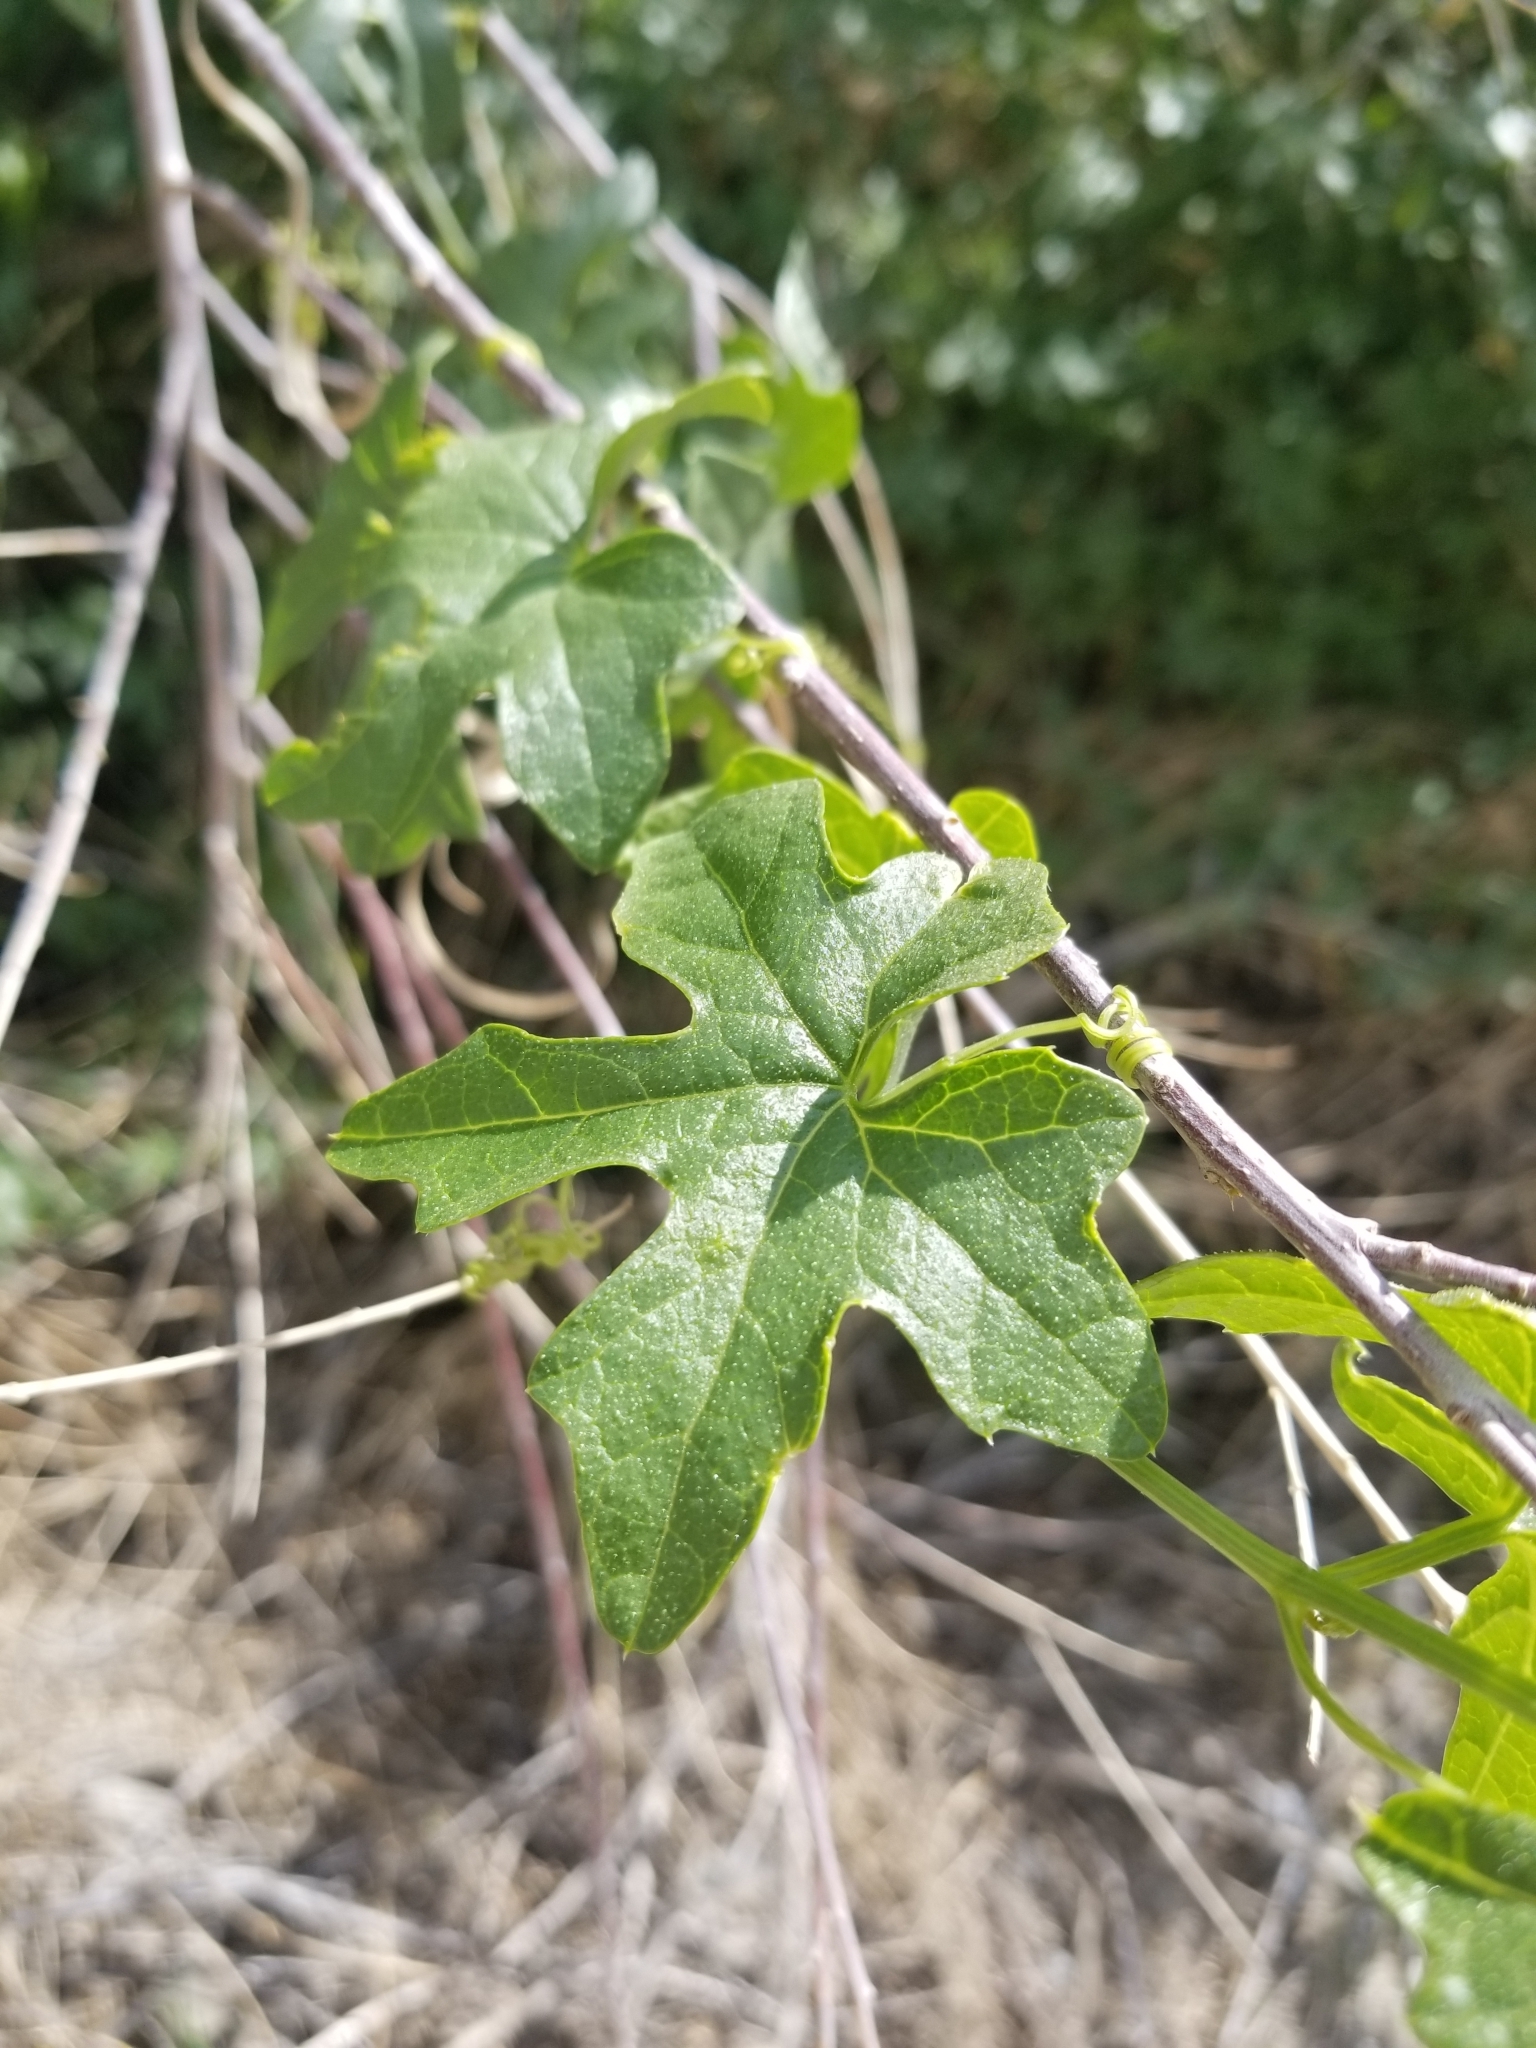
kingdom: Plantae
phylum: Tracheophyta
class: Magnoliopsida
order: Cucurbitales
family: Cucurbitaceae
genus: Marah
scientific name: Marah macrocarpa
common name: Cucamonga manroot
